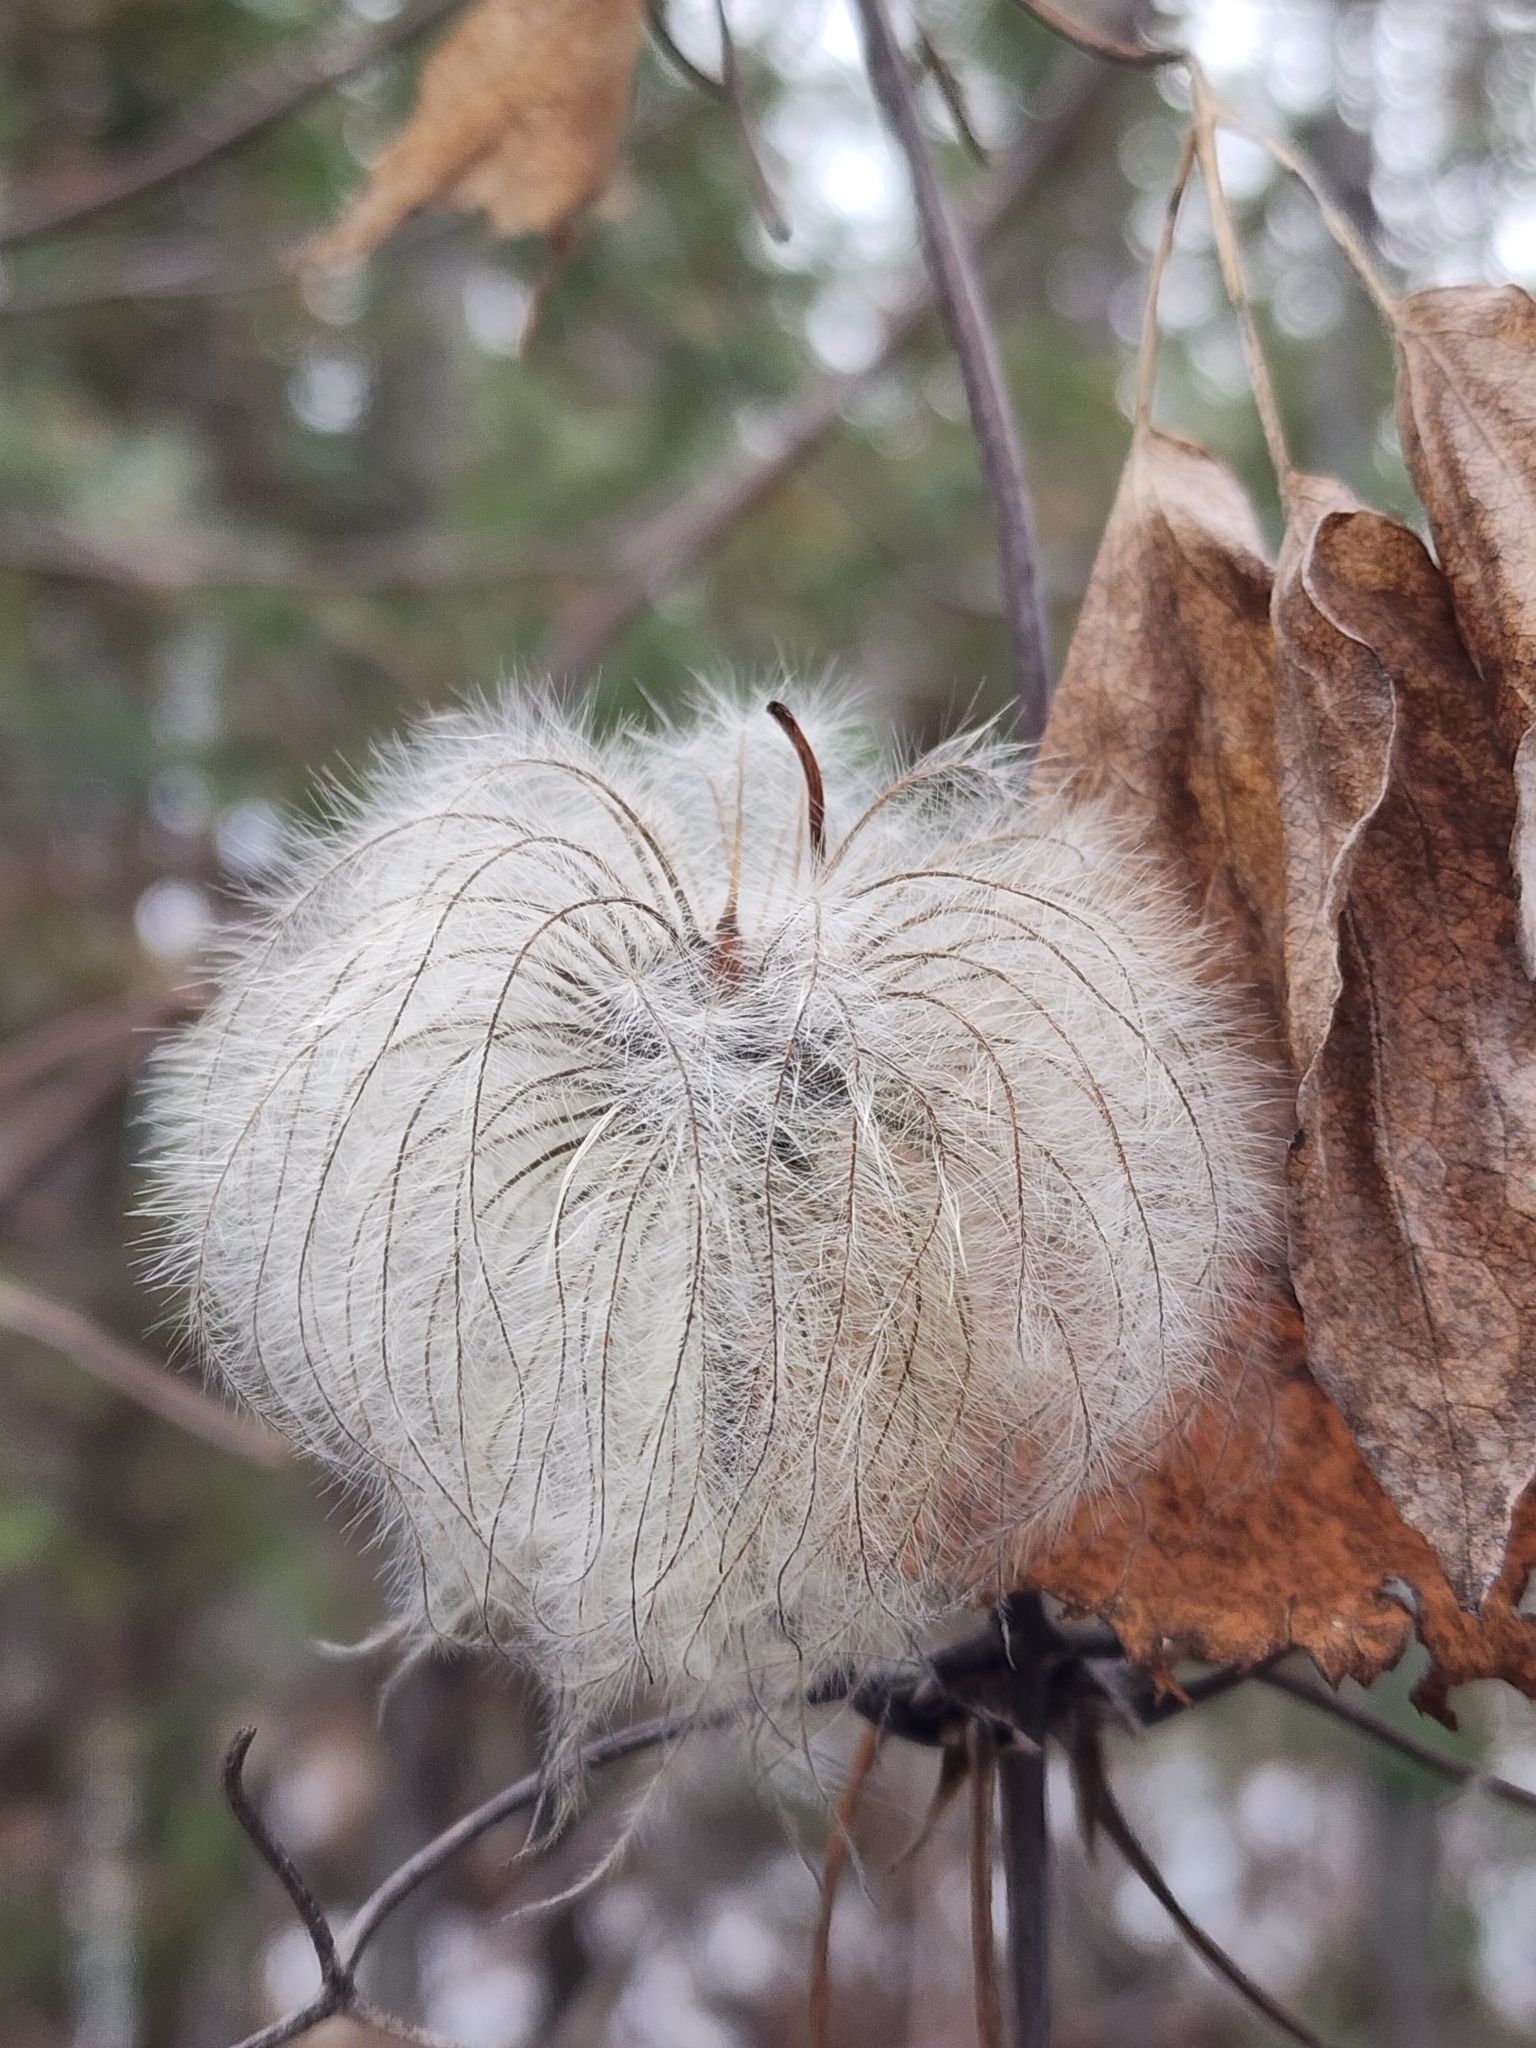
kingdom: Plantae
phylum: Tracheophyta
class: Magnoliopsida
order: Ranunculales
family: Ranunculaceae
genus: Clematis
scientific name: Clematis occidentalis
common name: Purple clematis
